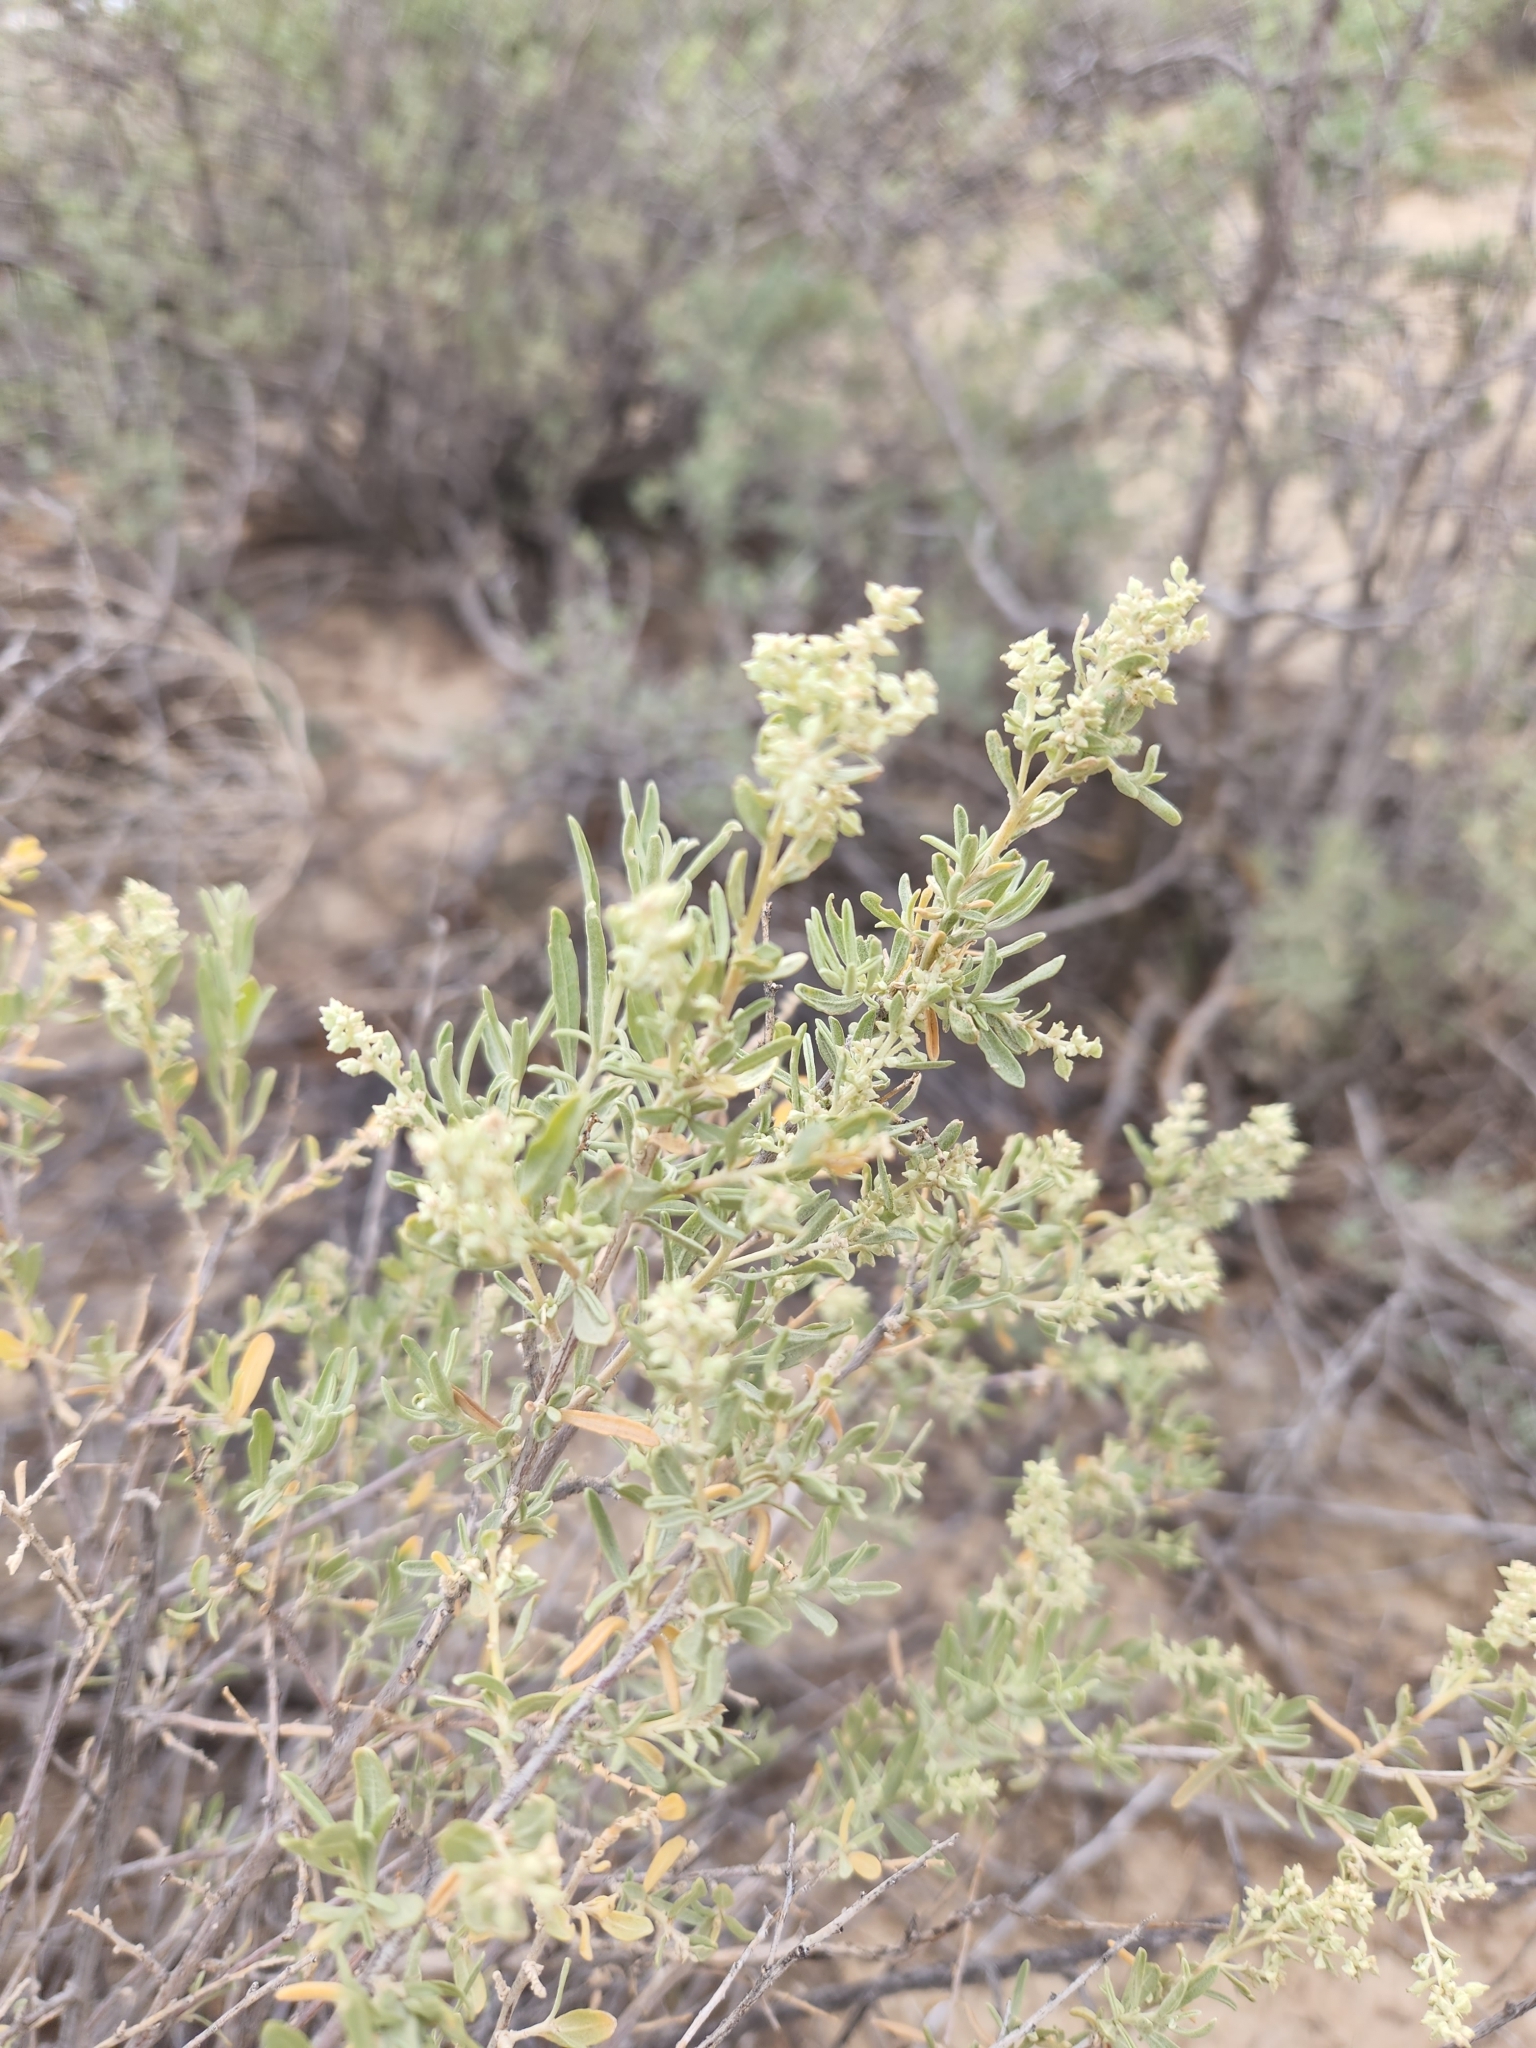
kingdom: Plantae
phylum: Tracheophyta
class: Magnoliopsida
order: Caryophyllales
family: Amaranthaceae
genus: Atriplex
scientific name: Atriplex canescens
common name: Four-wing saltbush
